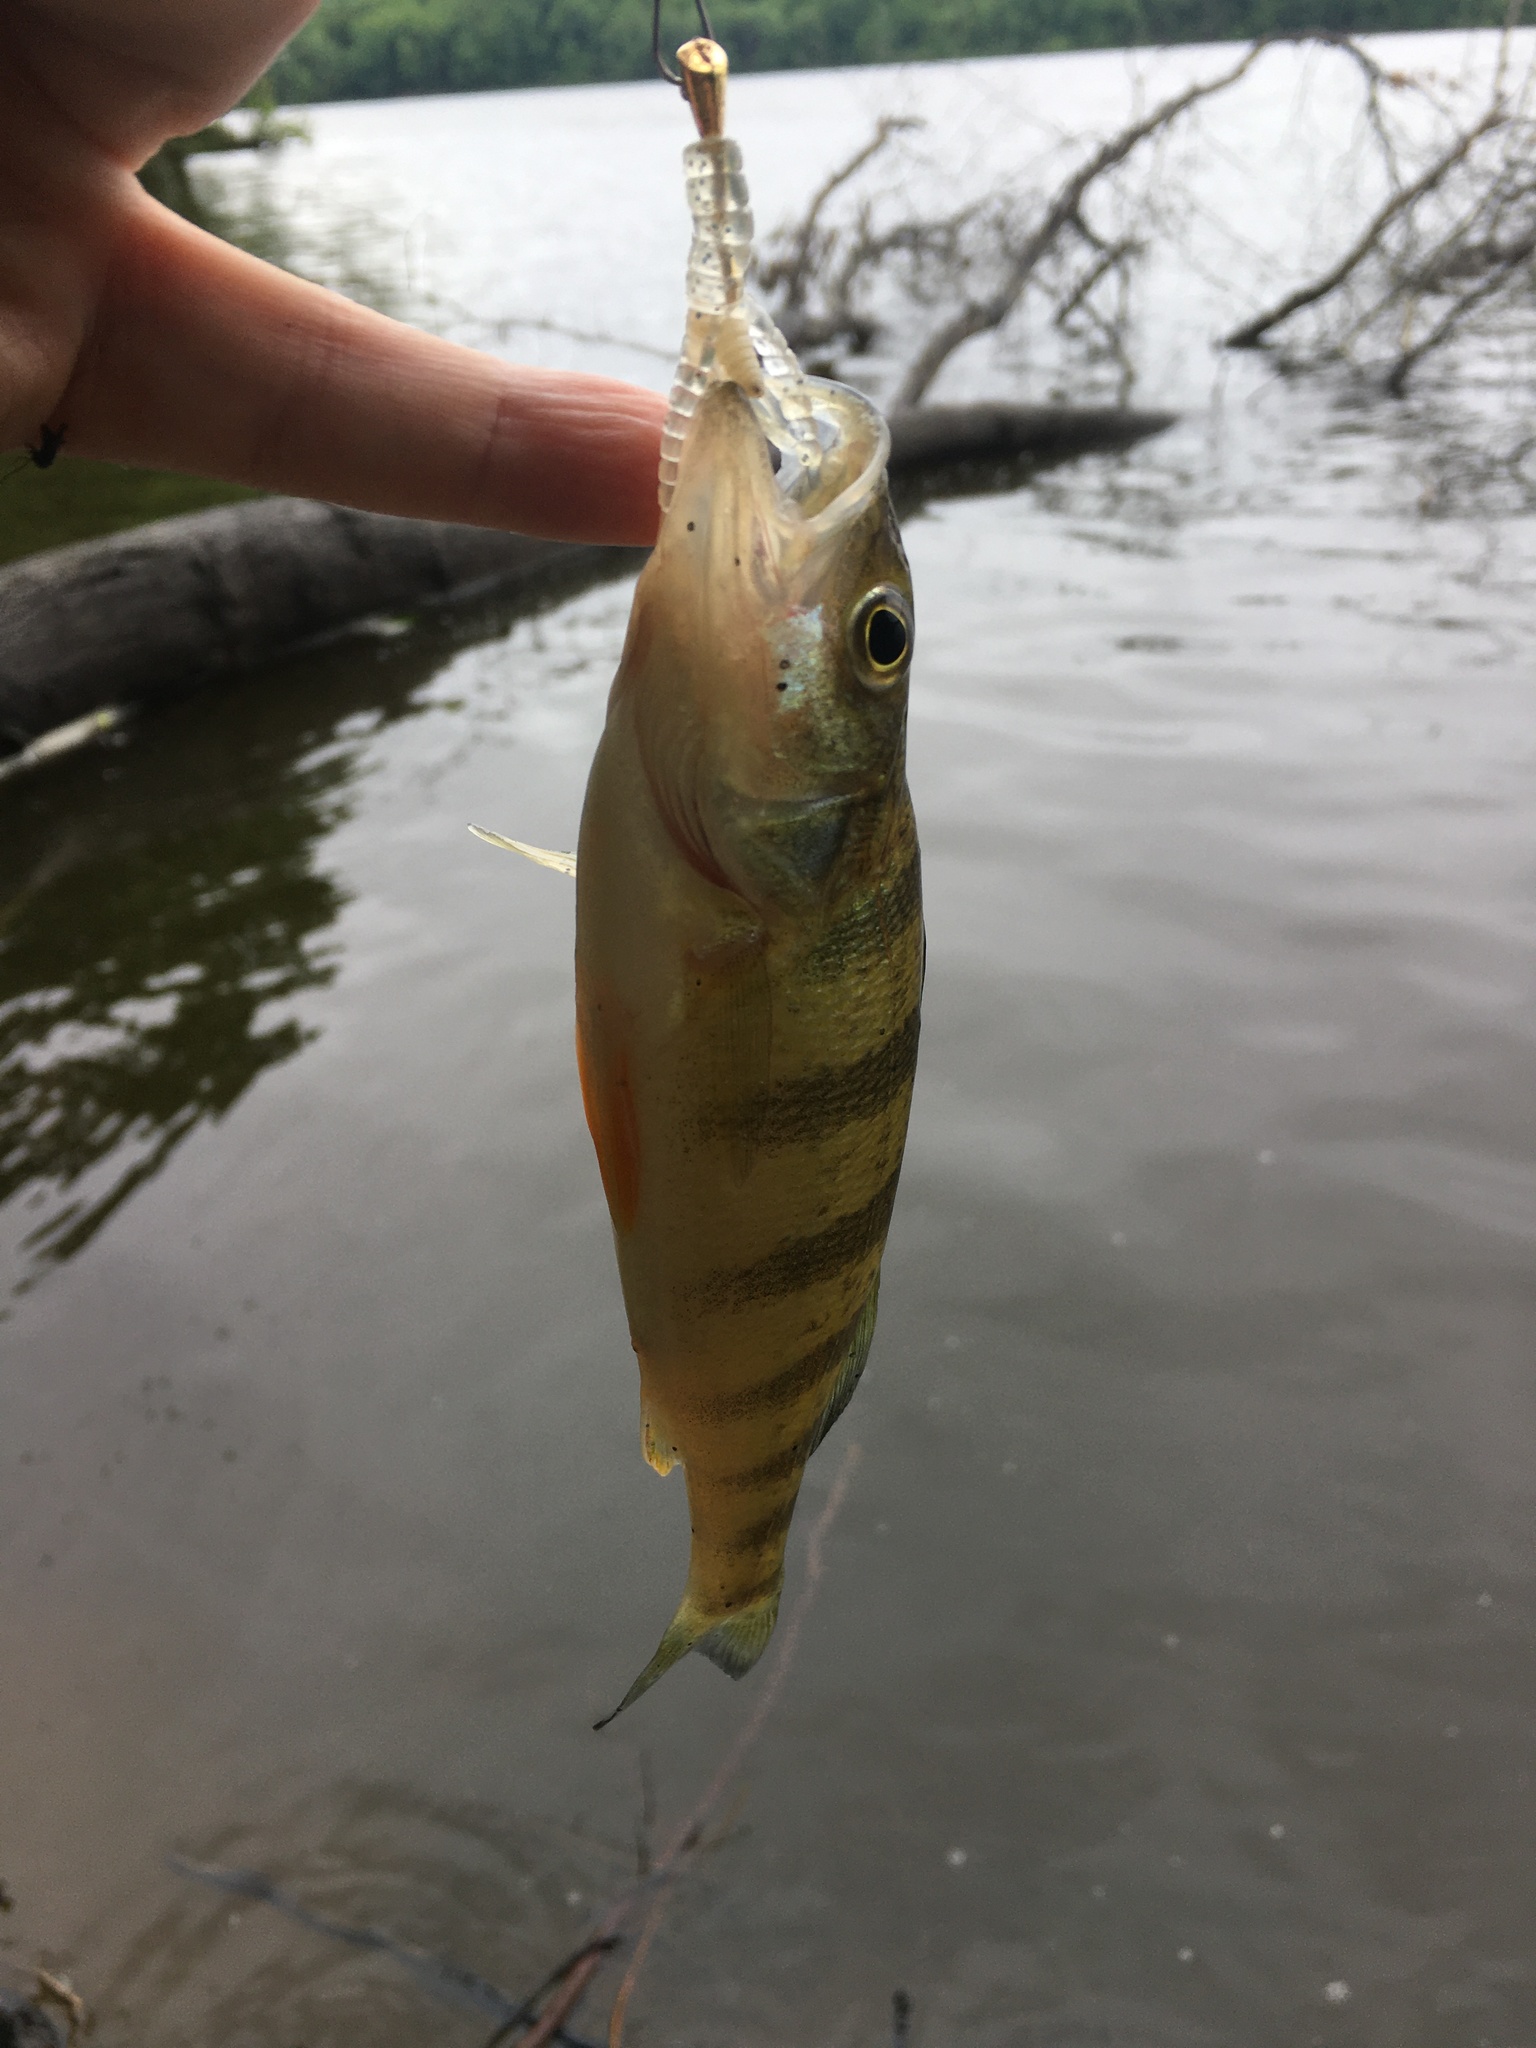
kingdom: Animalia
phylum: Chordata
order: Perciformes
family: Percidae
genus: Perca
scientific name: Perca flavescens
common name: Yellow perch
